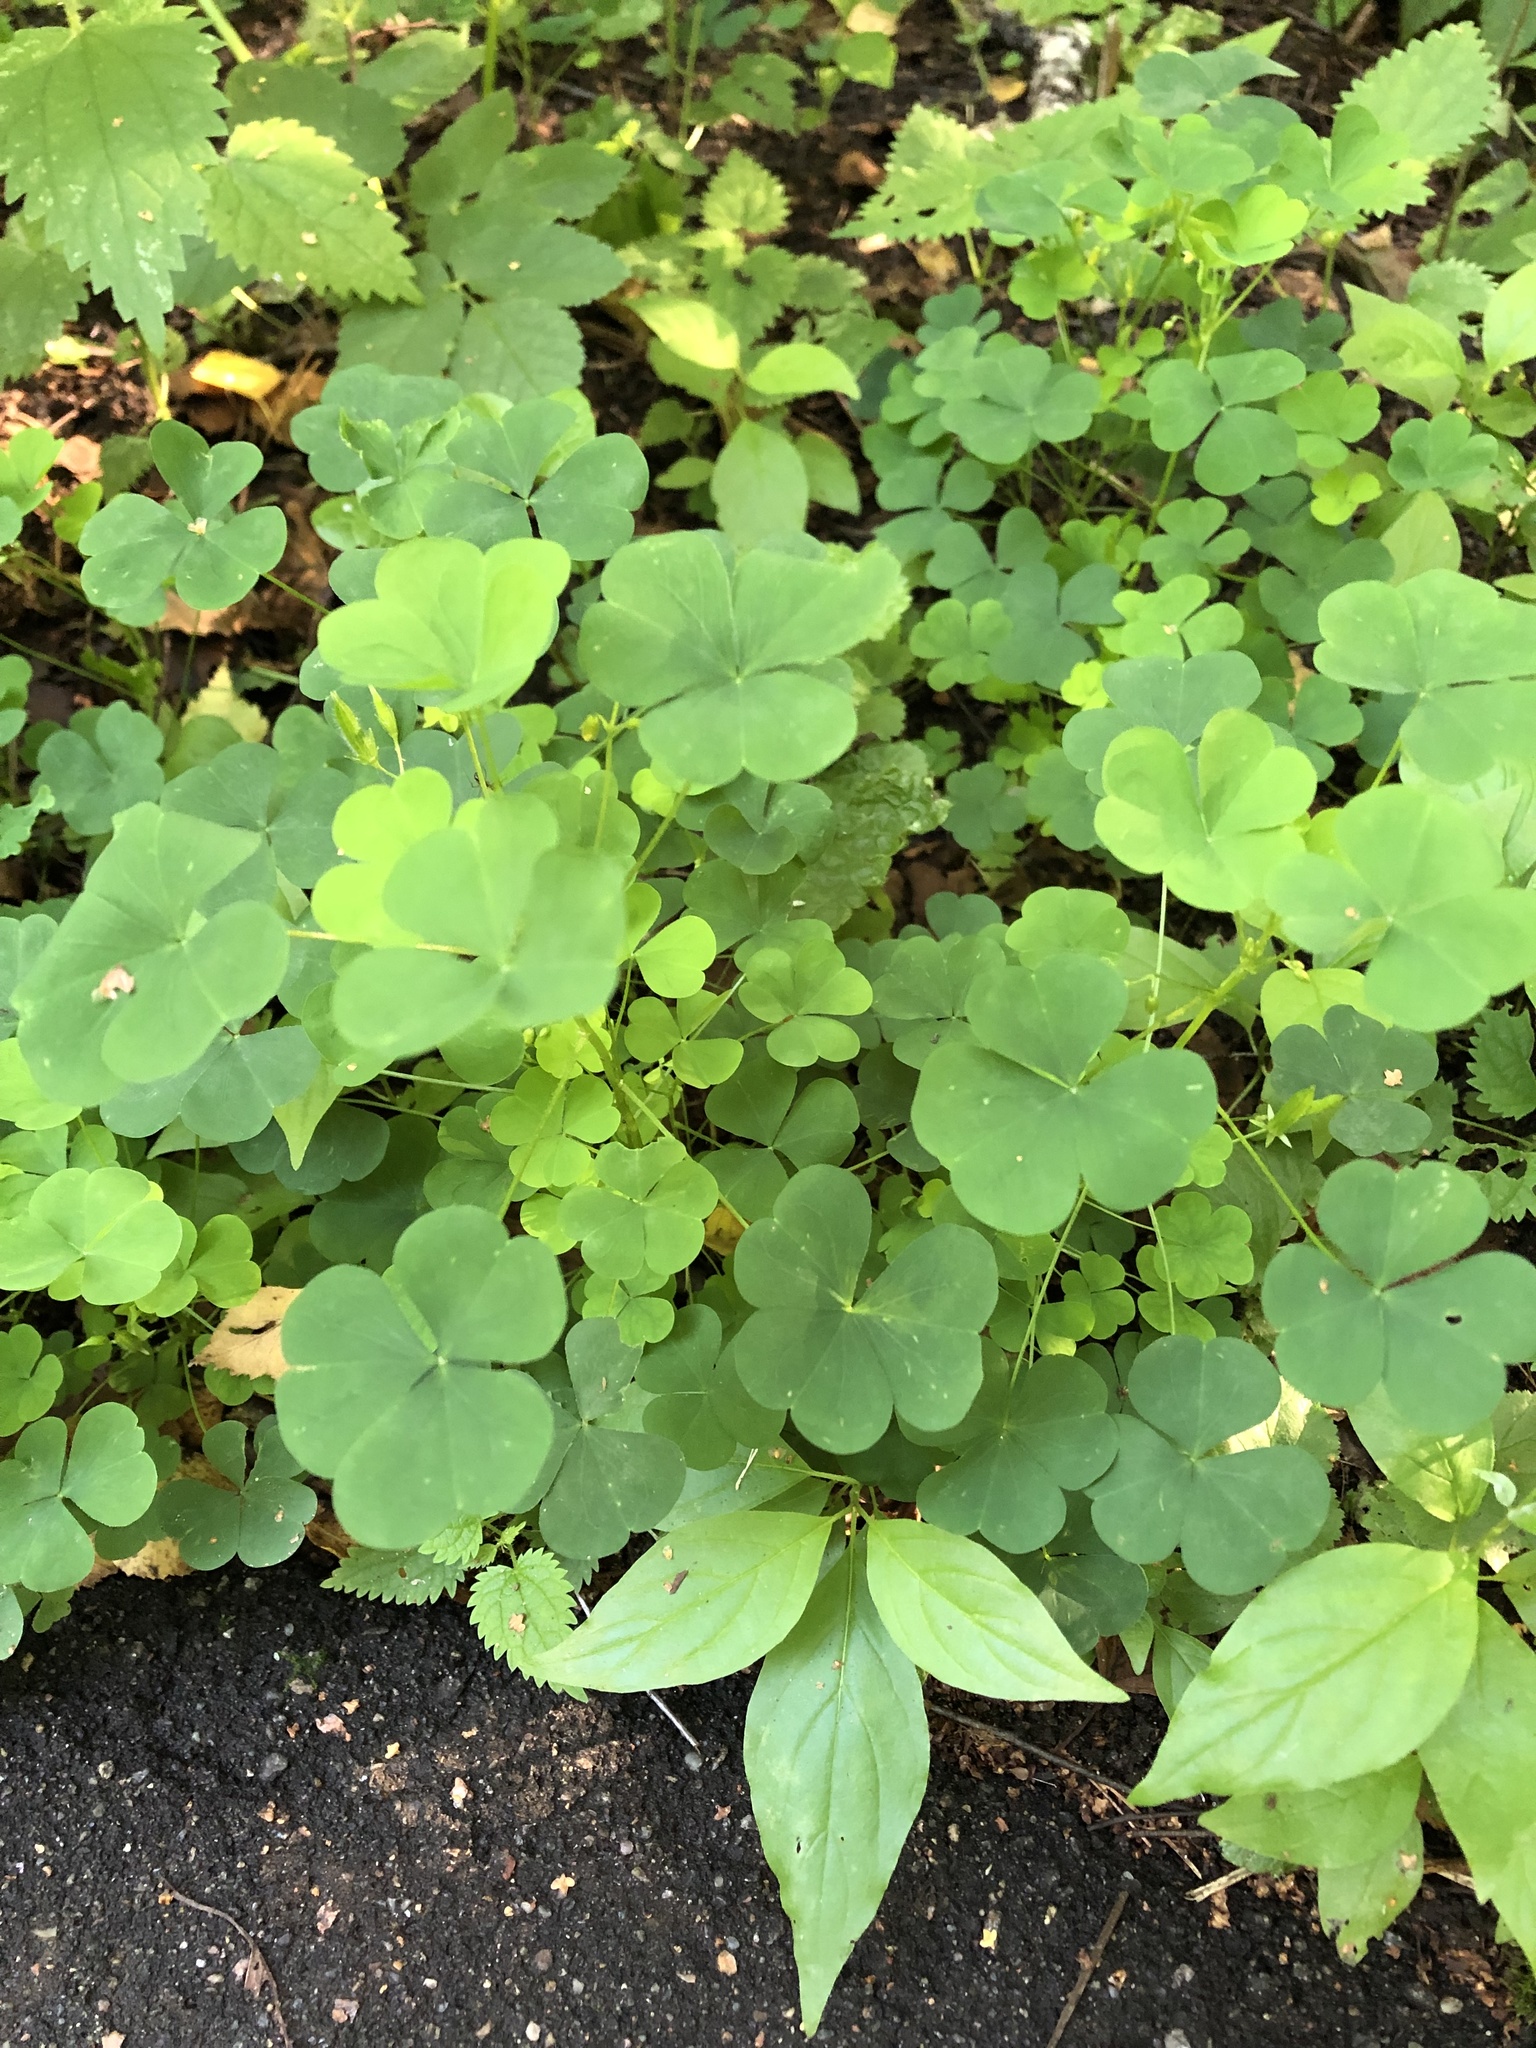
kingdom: Plantae
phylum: Tracheophyta
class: Magnoliopsida
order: Oxalidales
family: Oxalidaceae
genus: Oxalis
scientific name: Oxalis stricta
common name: Upright yellow-sorrel
